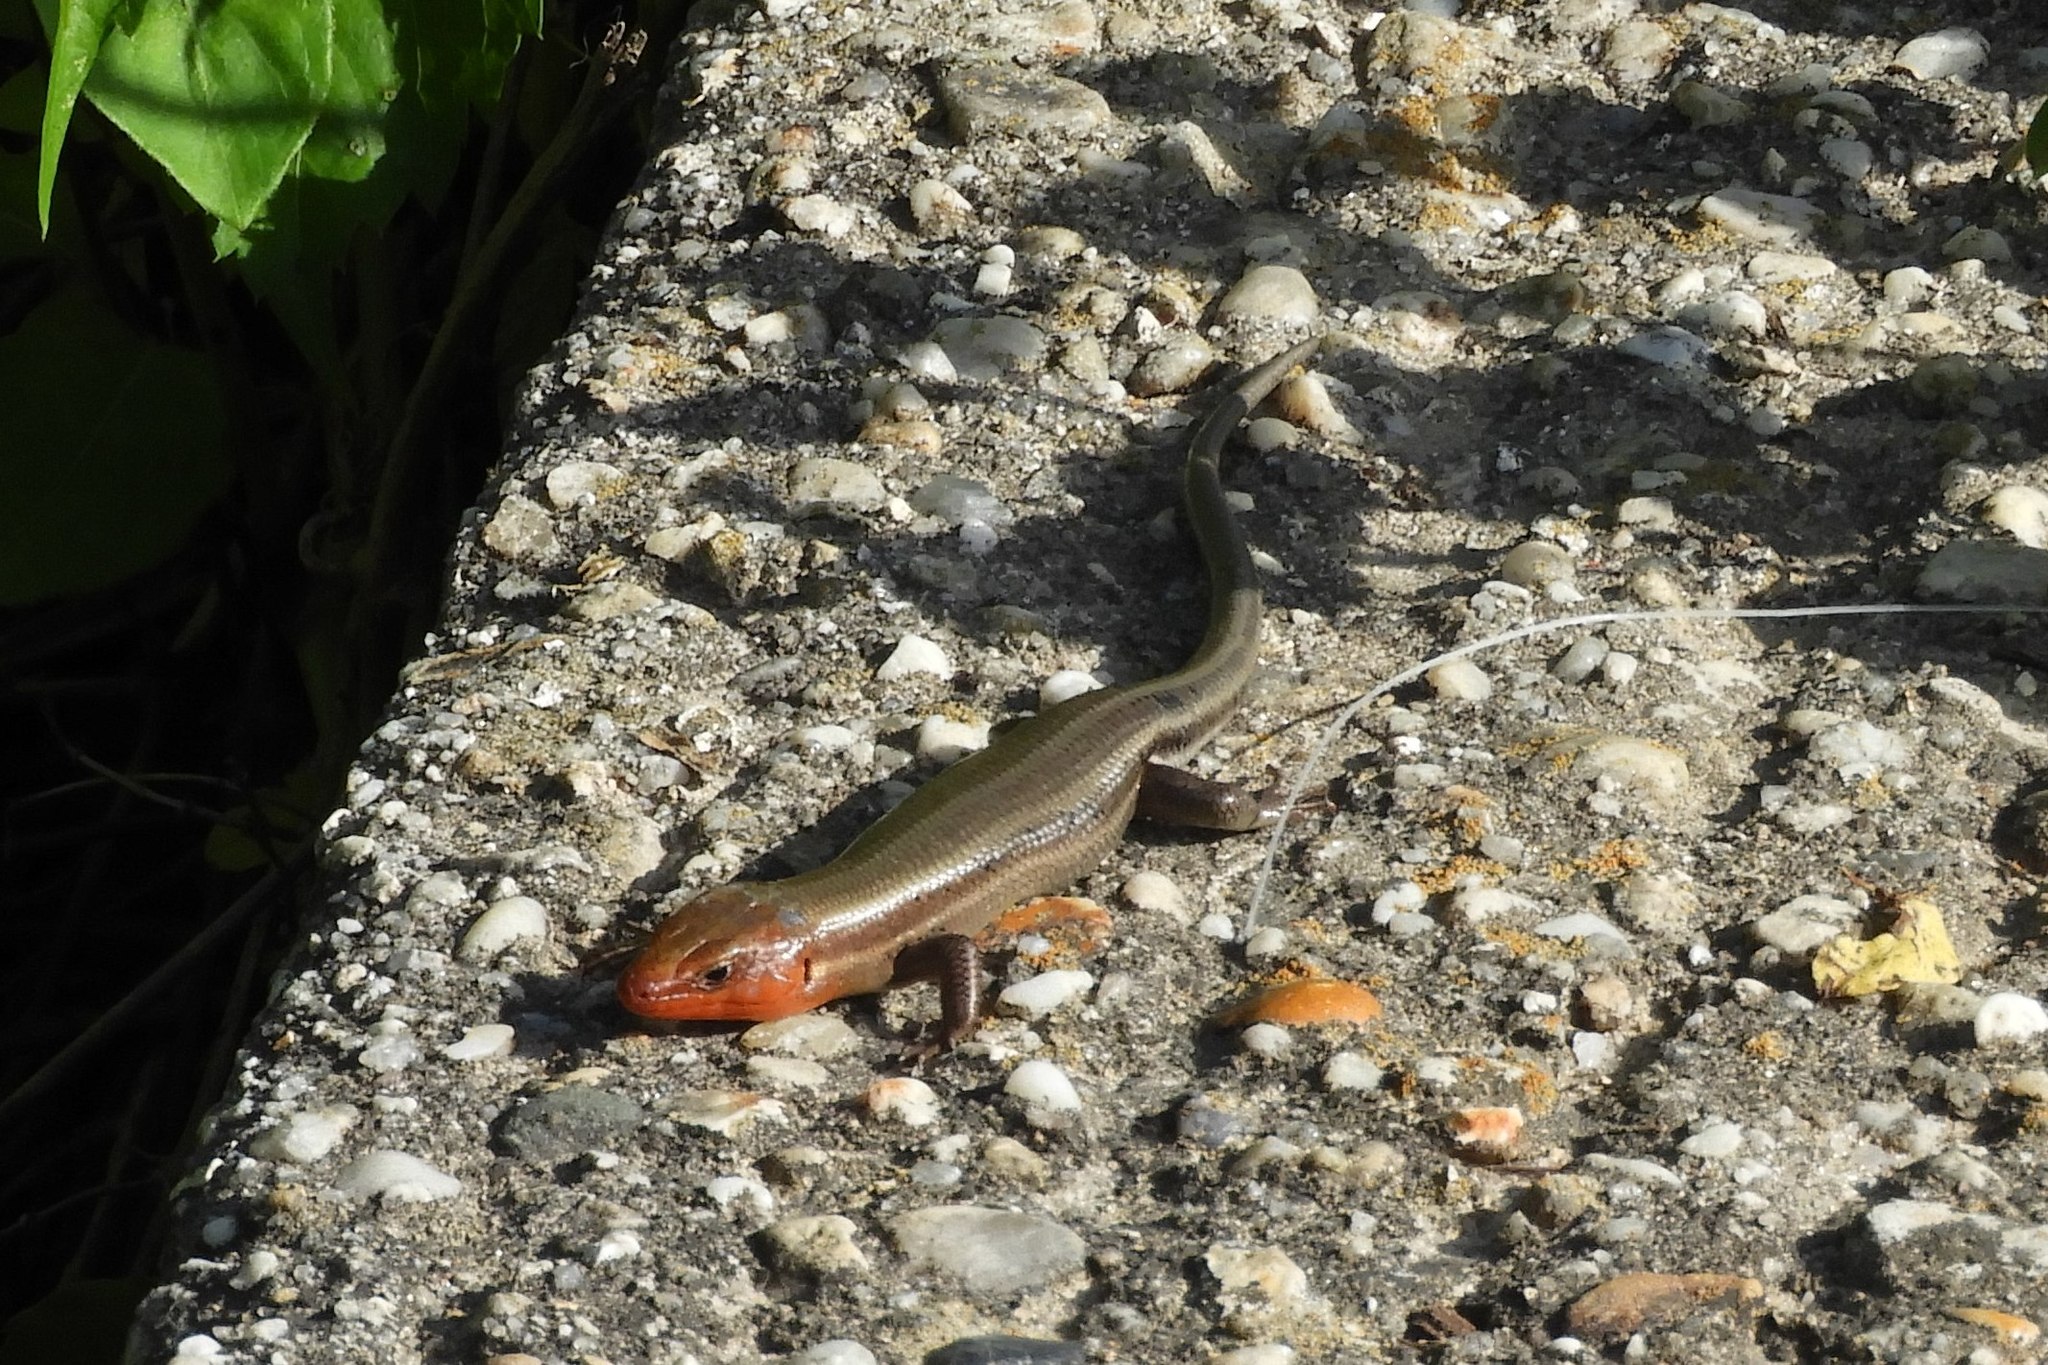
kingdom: Animalia
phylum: Chordata
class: Squamata
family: Scincidae
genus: Plestiodon
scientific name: Plestiodon fasciatus
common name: Five-lined skink
